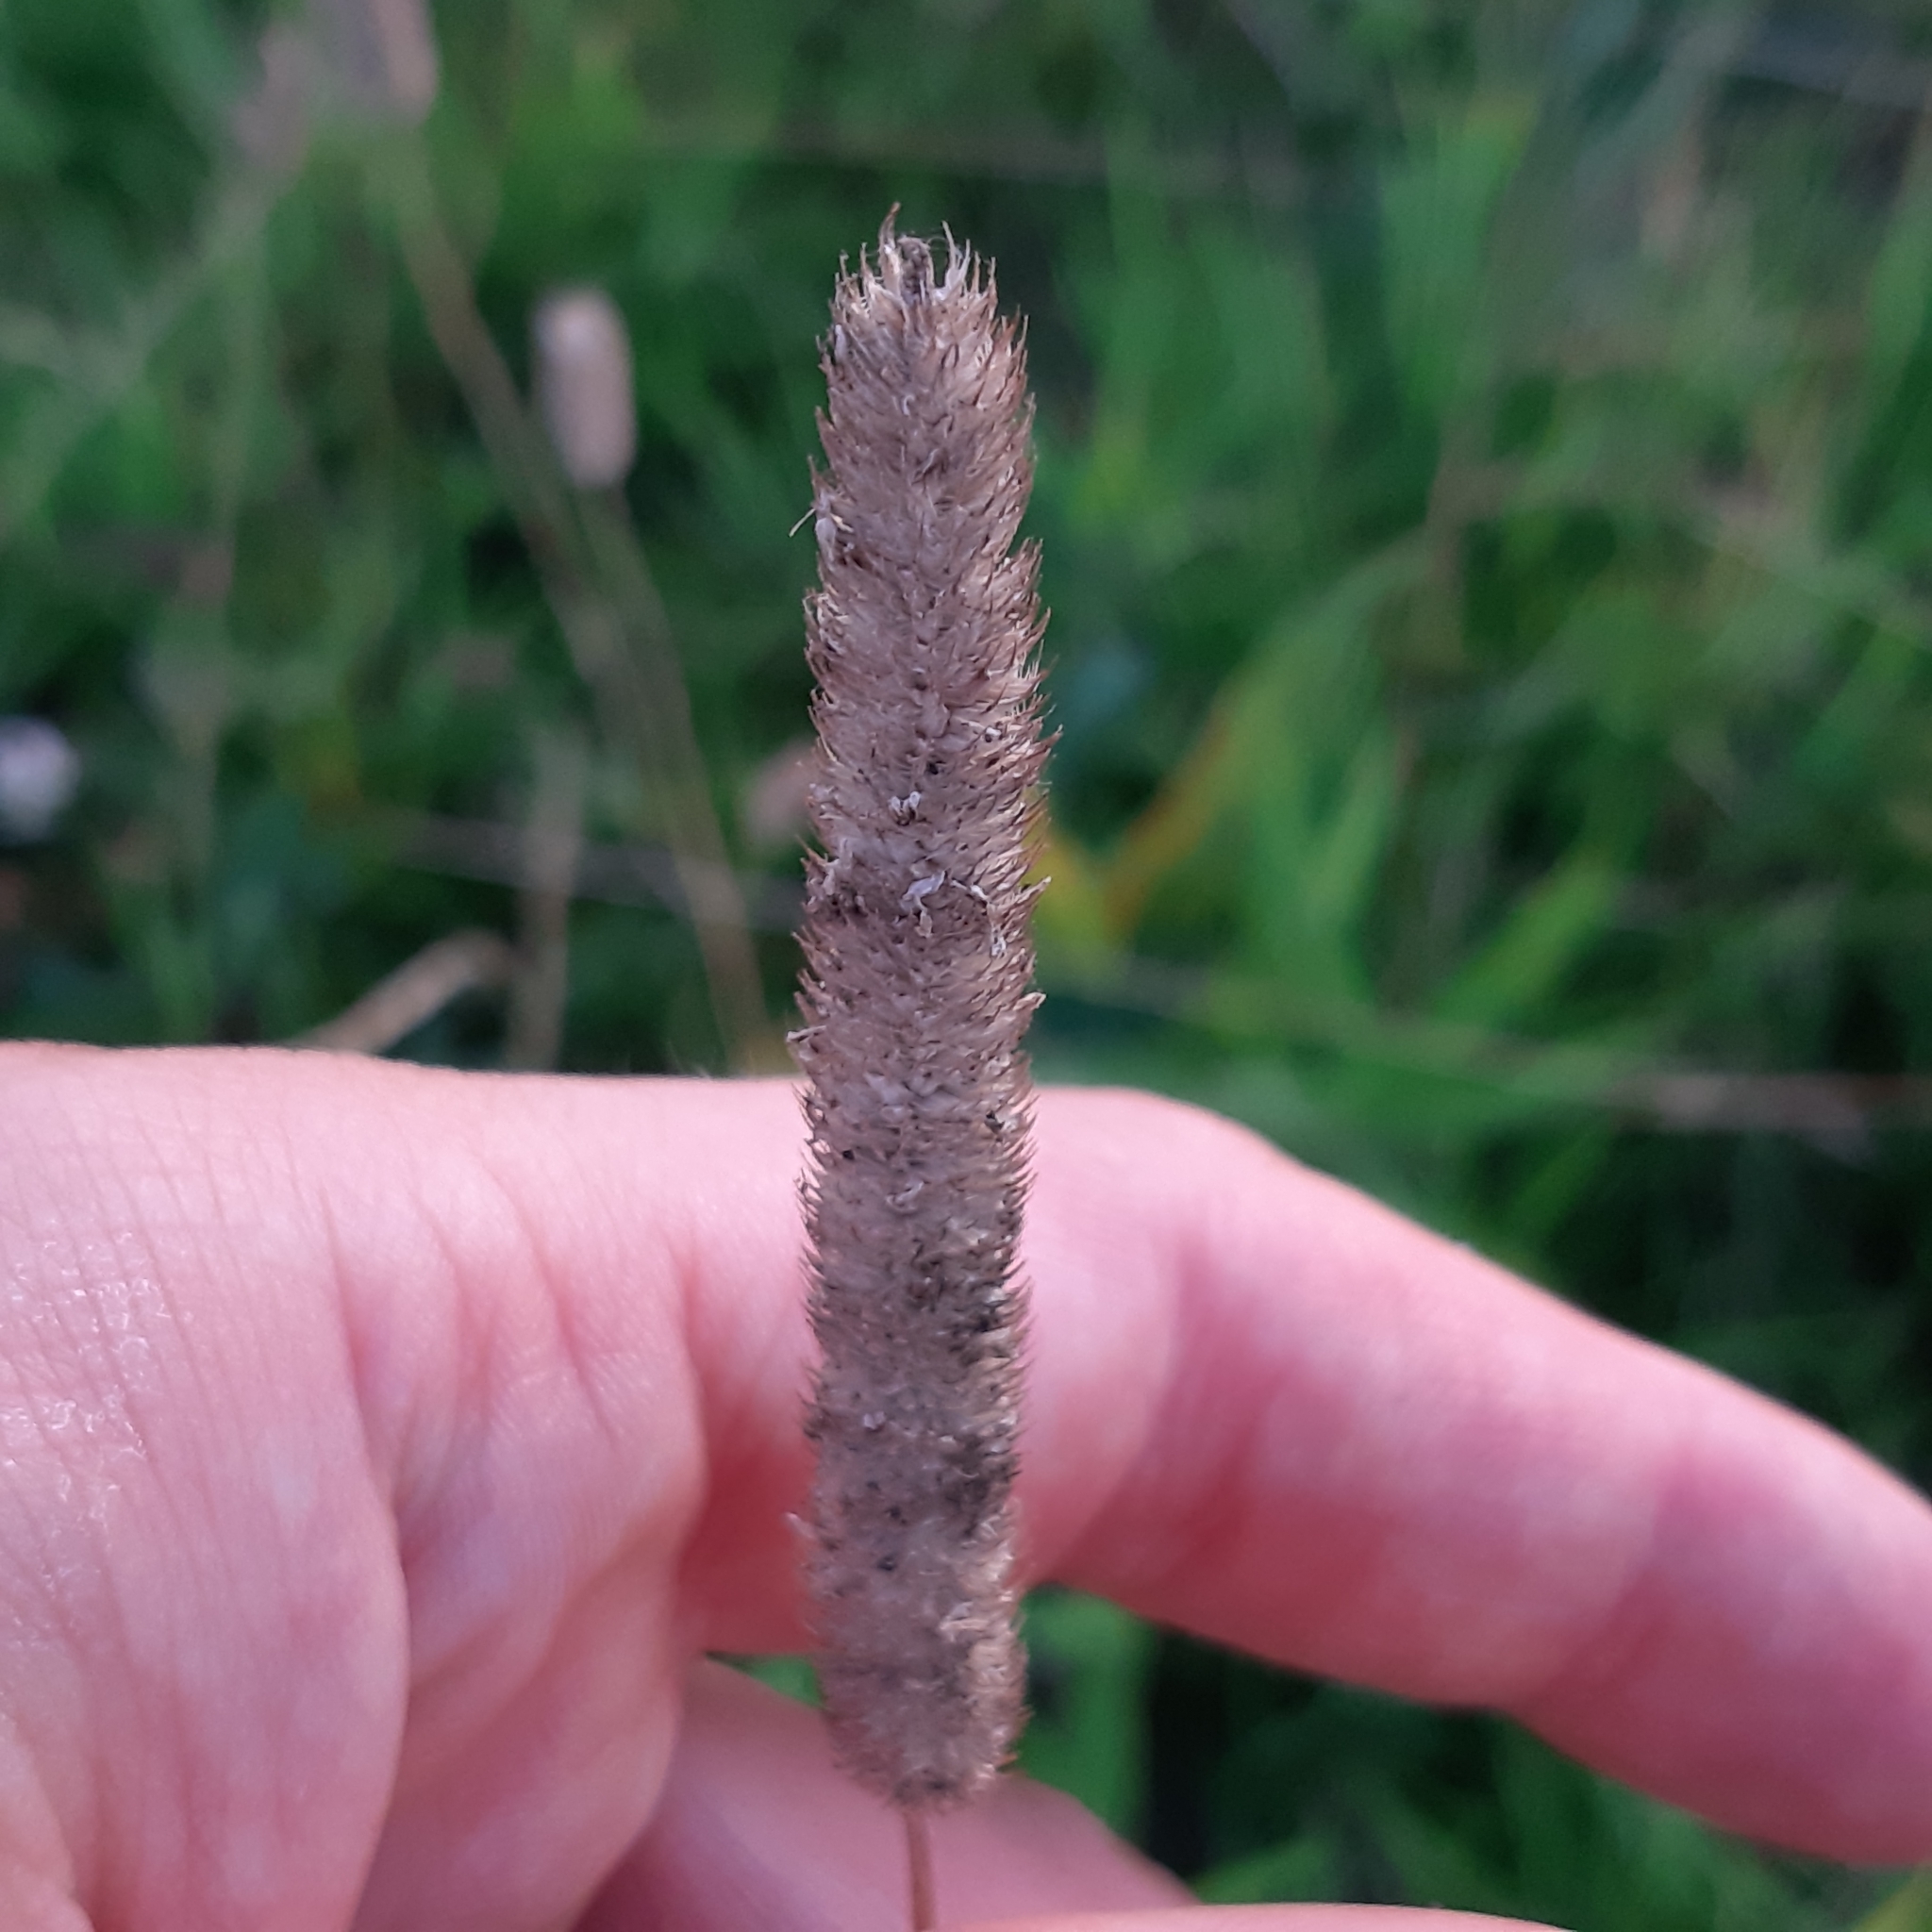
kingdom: Plantae
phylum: Tracheophyta
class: Liliopsida
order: Poales
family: Poaceae
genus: Phleum
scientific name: Phleum pratense
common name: Timothy grass
